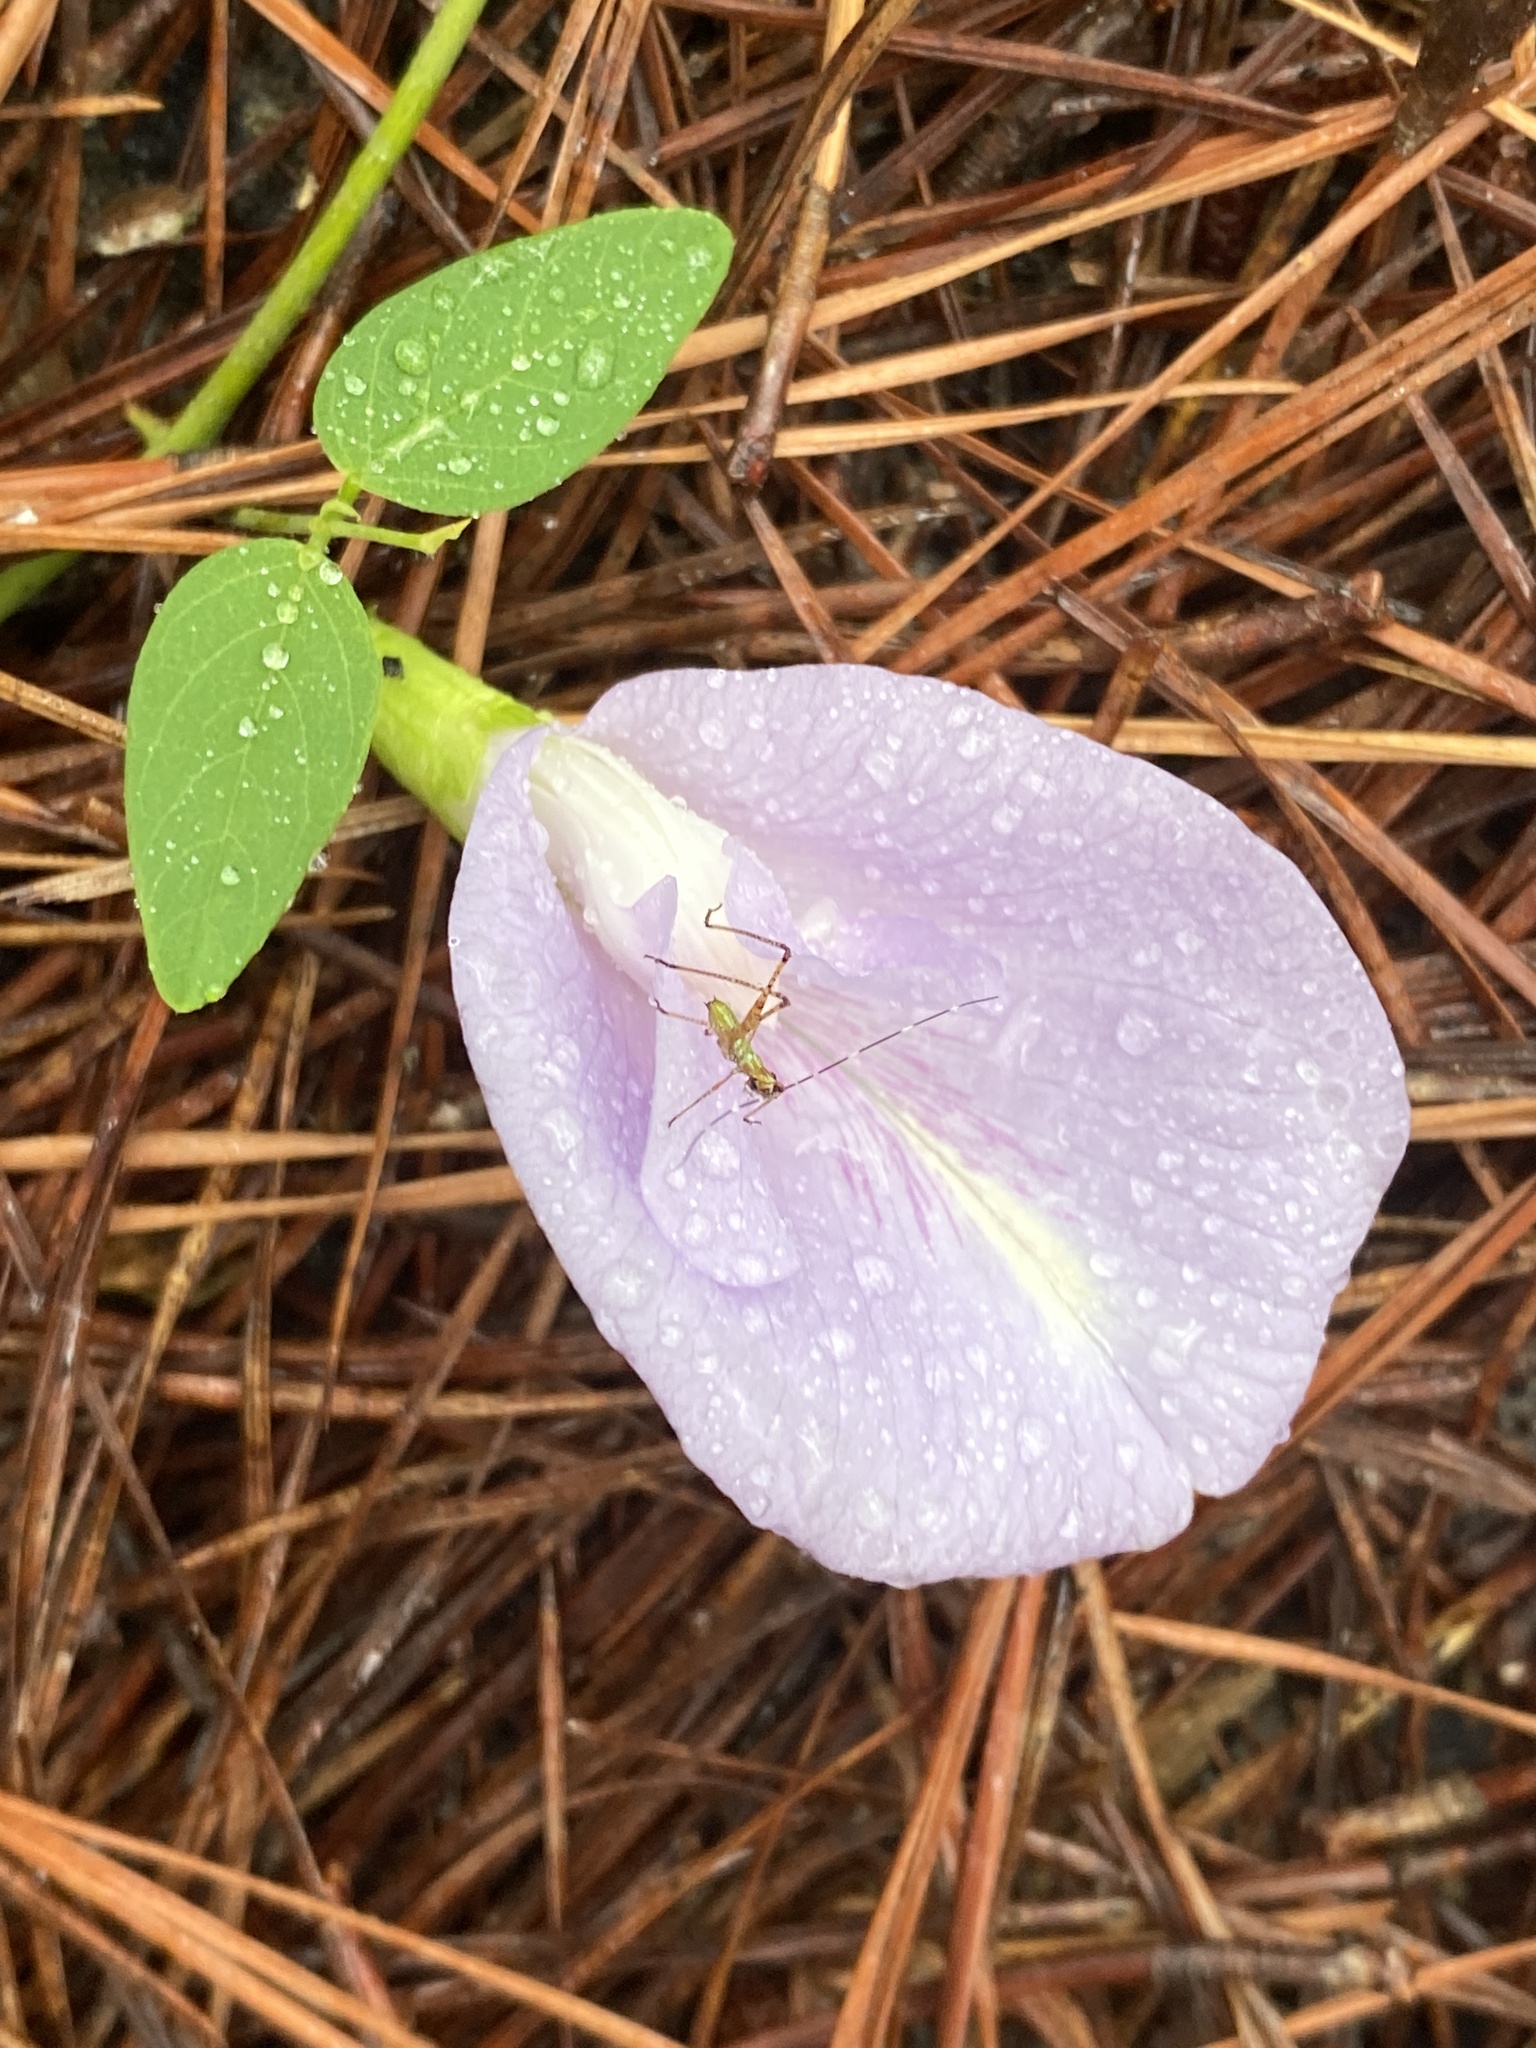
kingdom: Plantae
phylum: Tracheophyta
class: Magnoliopsida
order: Fabales
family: Fabaceae
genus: Clitoria
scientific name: Clitoria mariana
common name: Butterfly-pea
